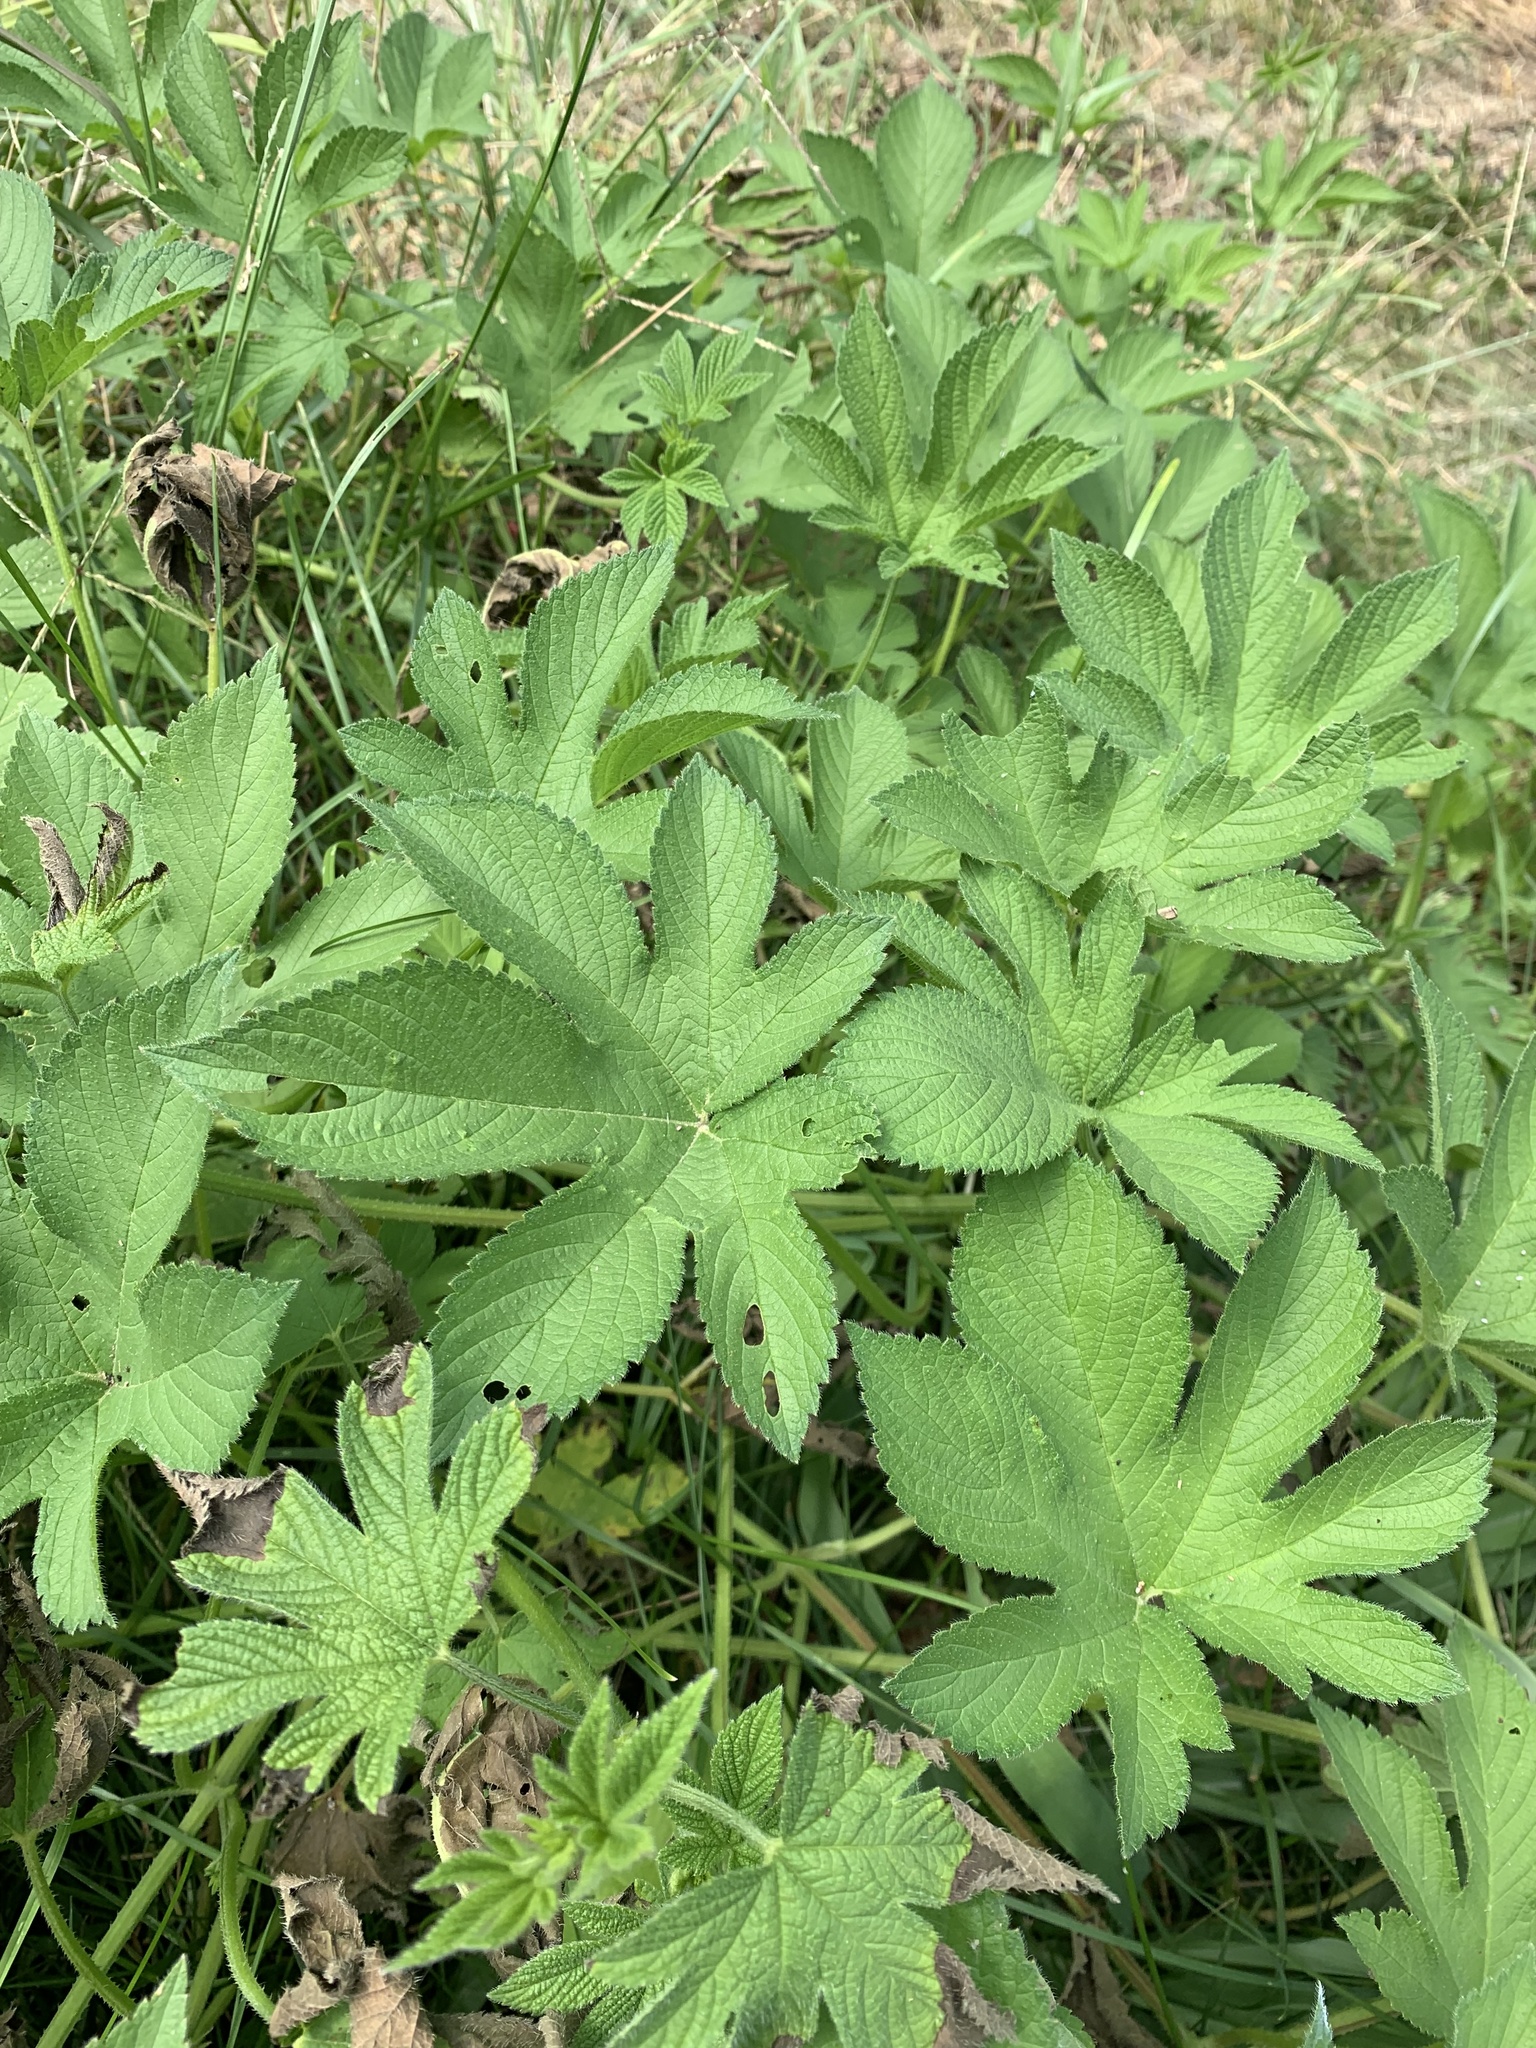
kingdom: Plantae
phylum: Tracheophyta
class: Magnoliopsida
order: Rosales
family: Cannabaceae
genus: Humulus
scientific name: Humulus scandens
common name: Japanese hop
